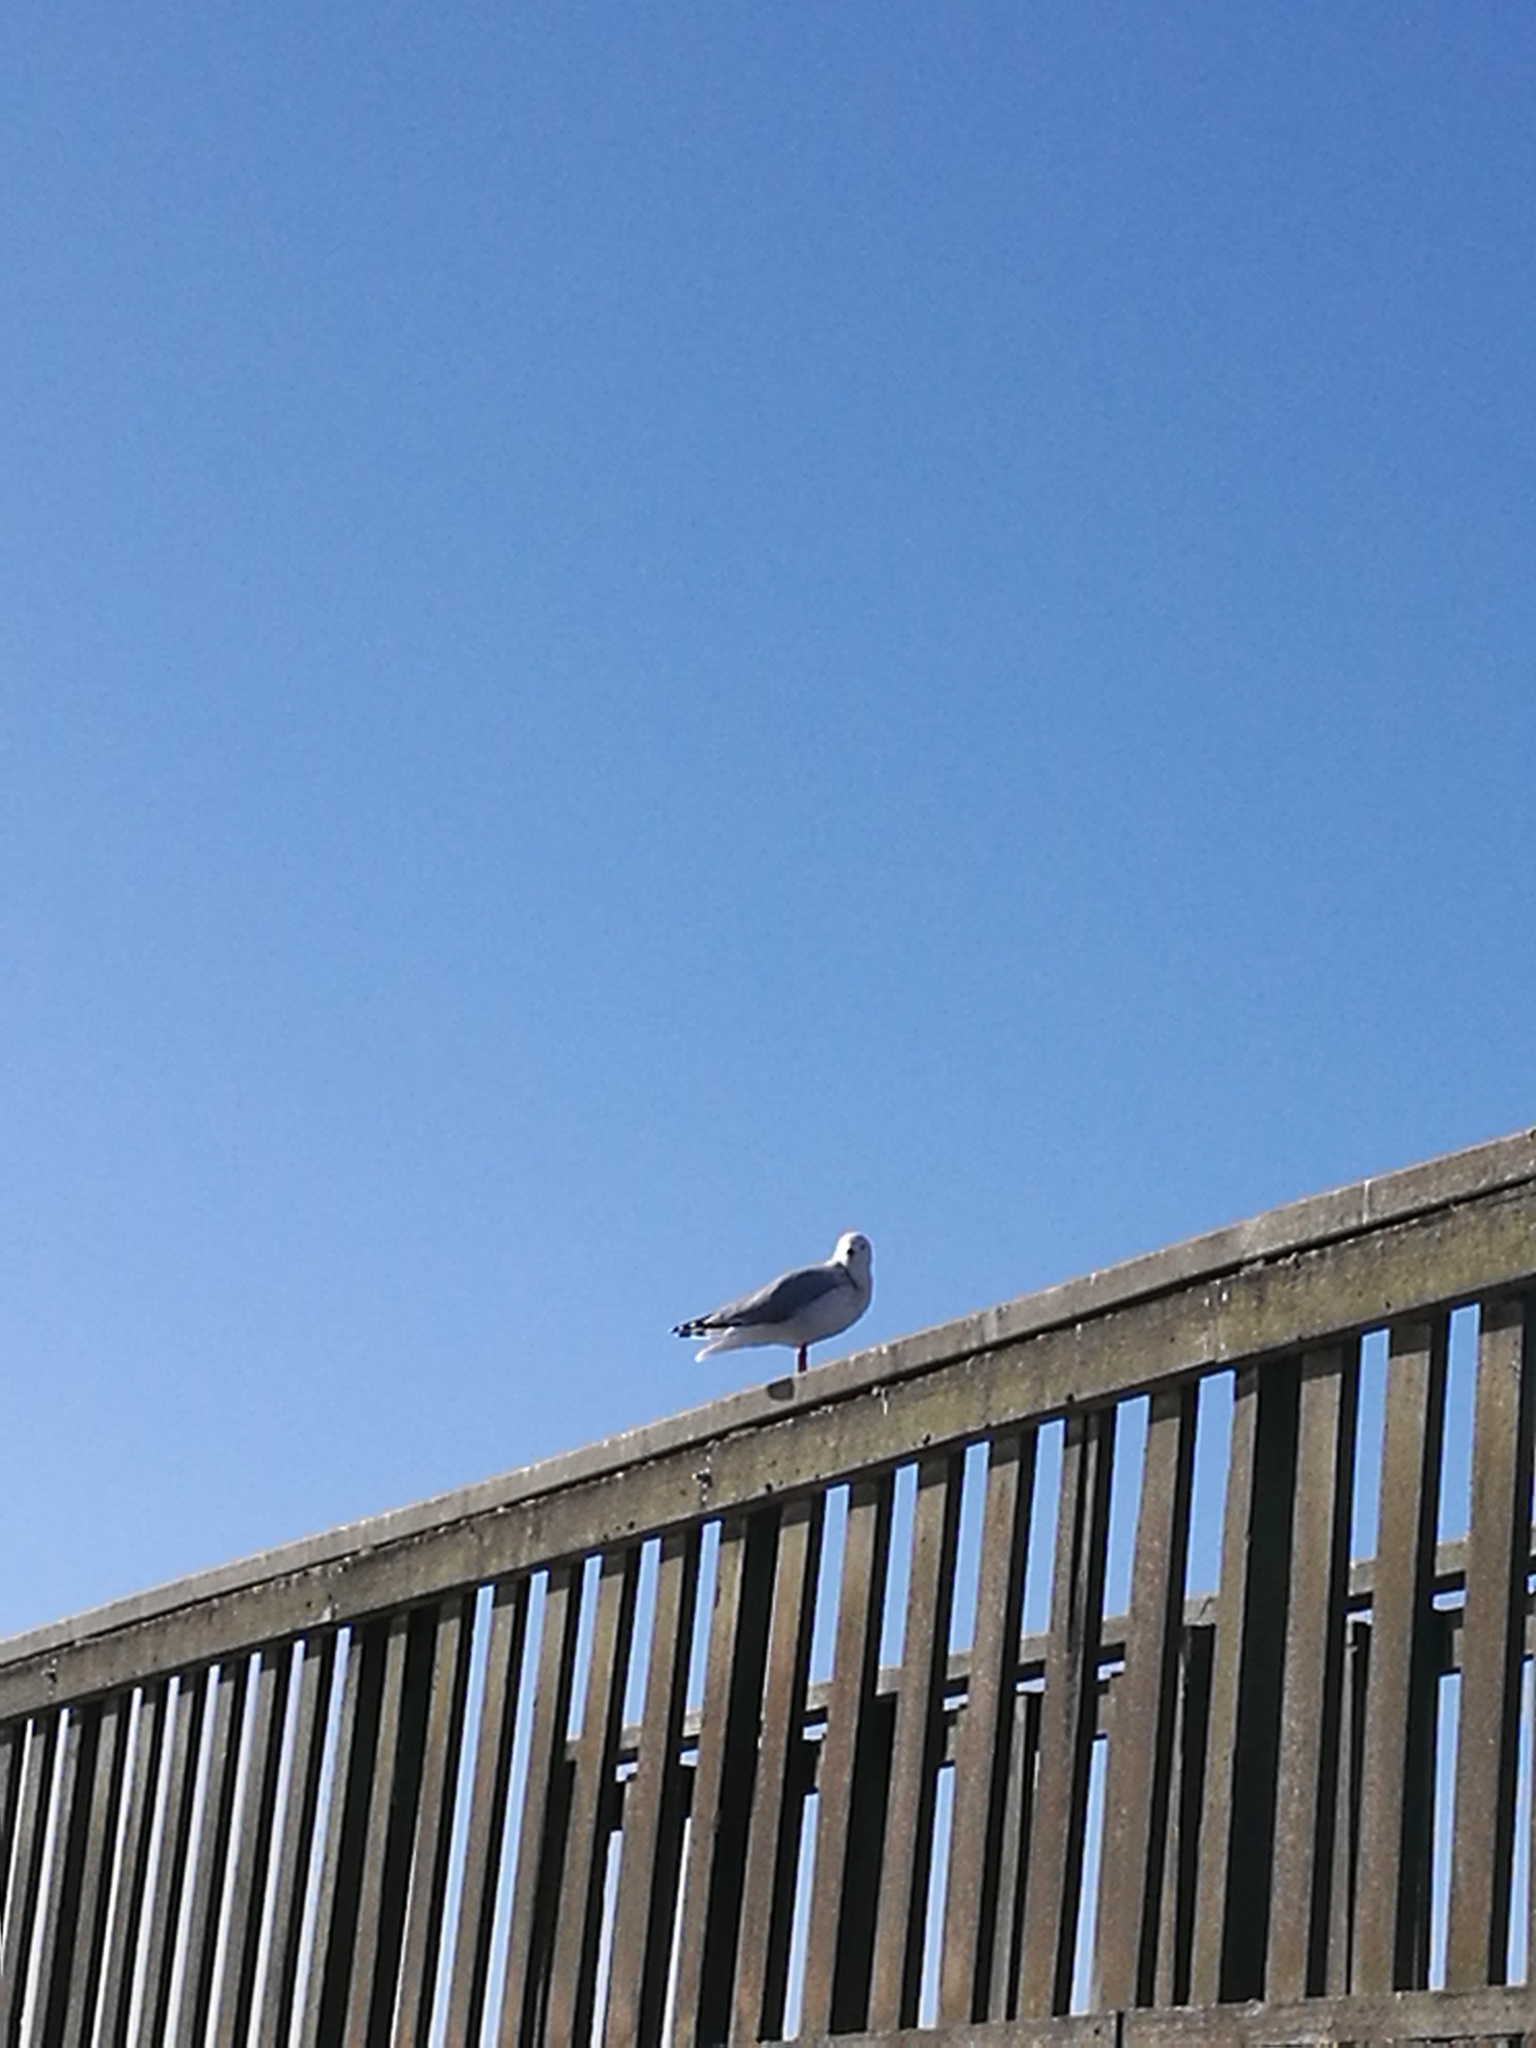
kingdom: Animalia
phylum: Chordata
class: Aves
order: Charadriiformes
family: Laridae
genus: Chroicocephalus
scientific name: Chroicocephalus novaehollandiae
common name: Silver gull
